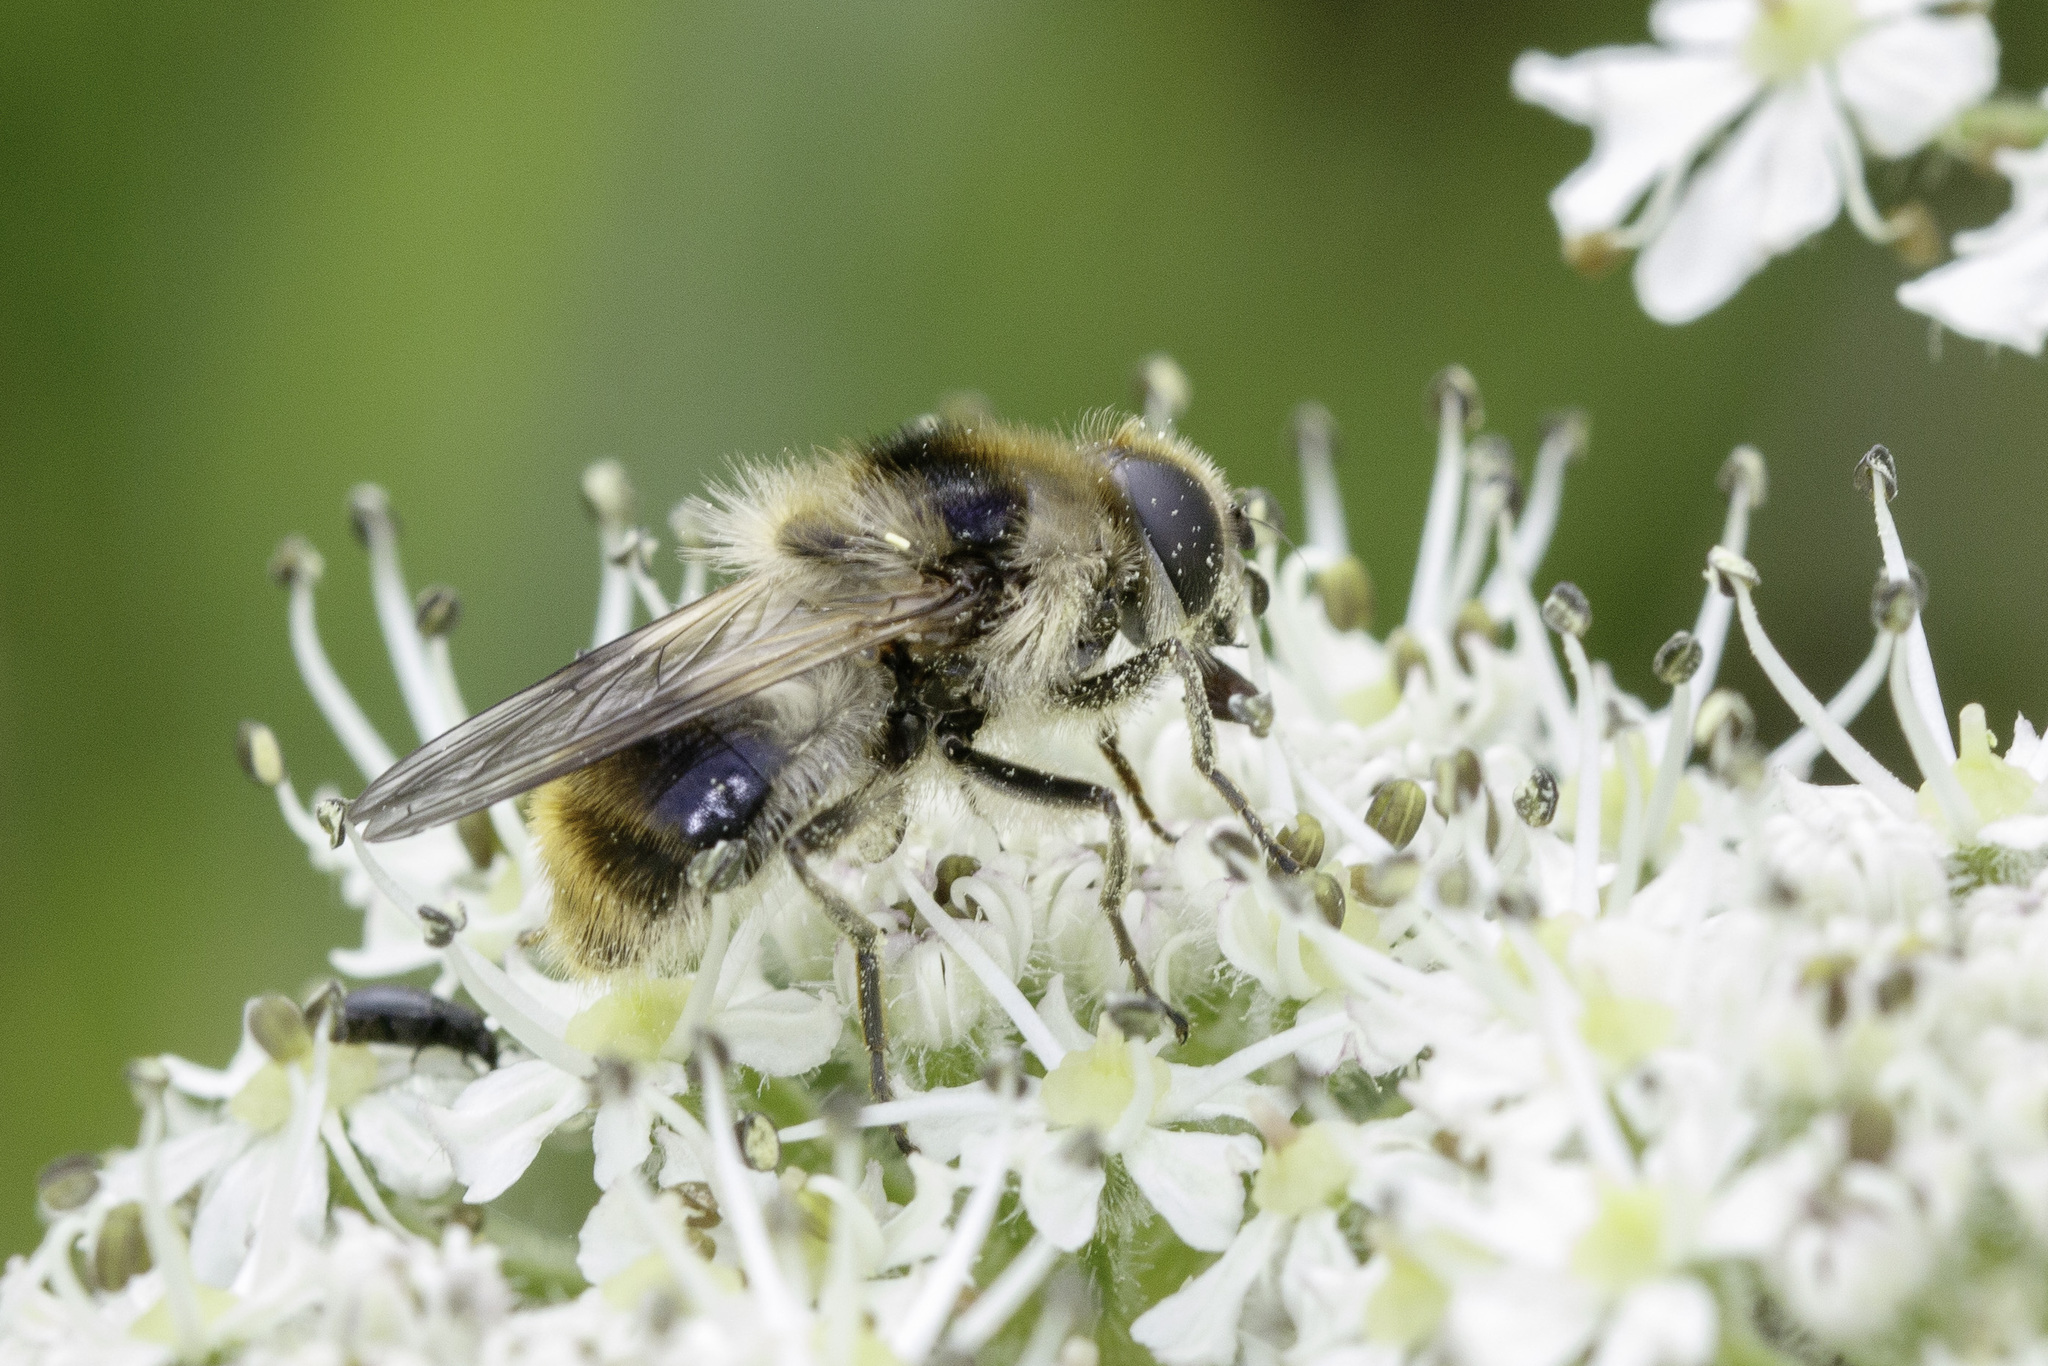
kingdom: Animalia
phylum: Arthropoda
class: Insecta
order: Diptera
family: Syrphidae
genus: Cheilosia
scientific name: Cheilosia illustrata
